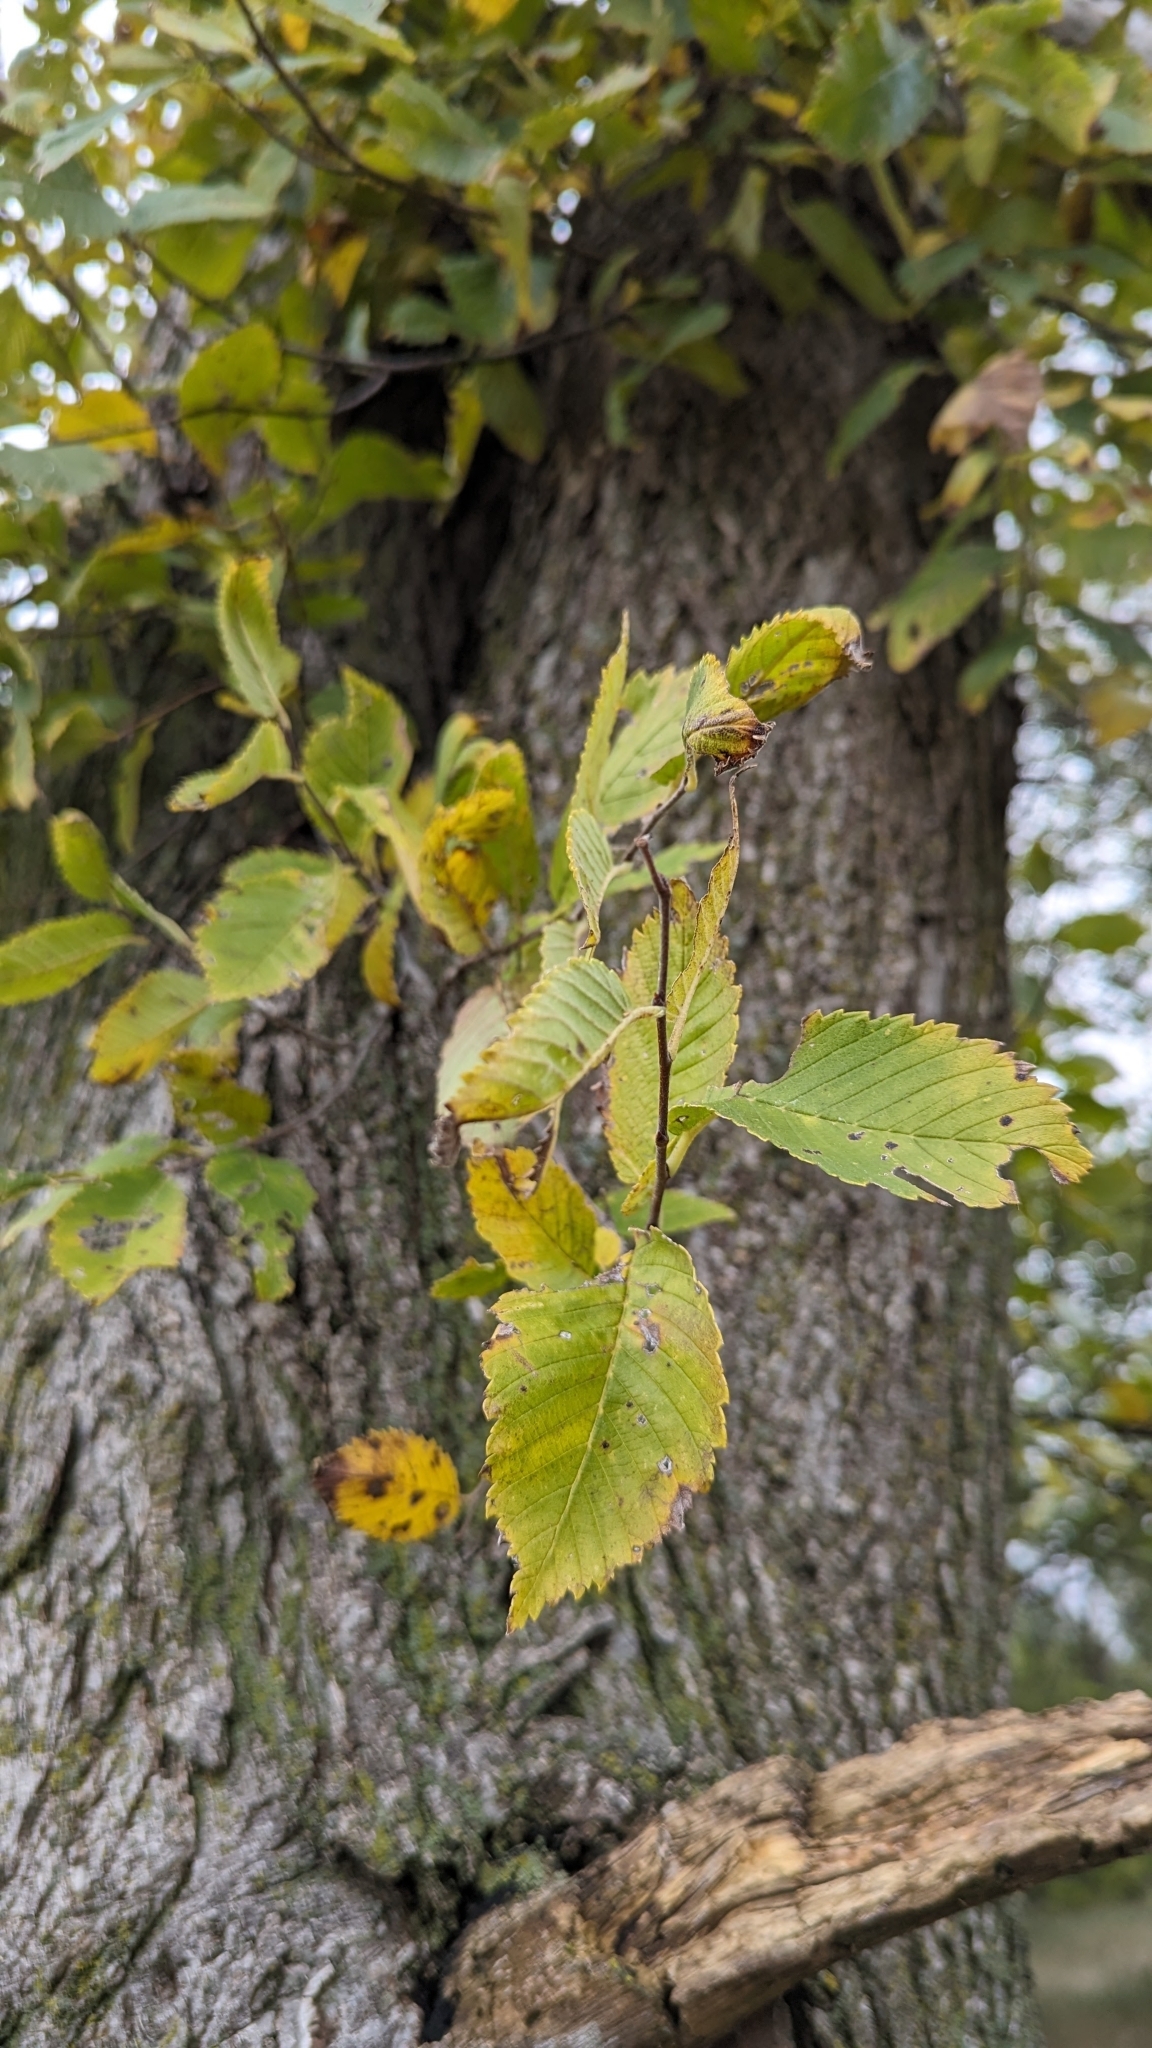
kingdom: Plantae
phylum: Tracheophyta
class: Magnoliopsida
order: Rosales
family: Ulmaceae
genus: Ulmus
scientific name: Ulmus americana
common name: American elm
